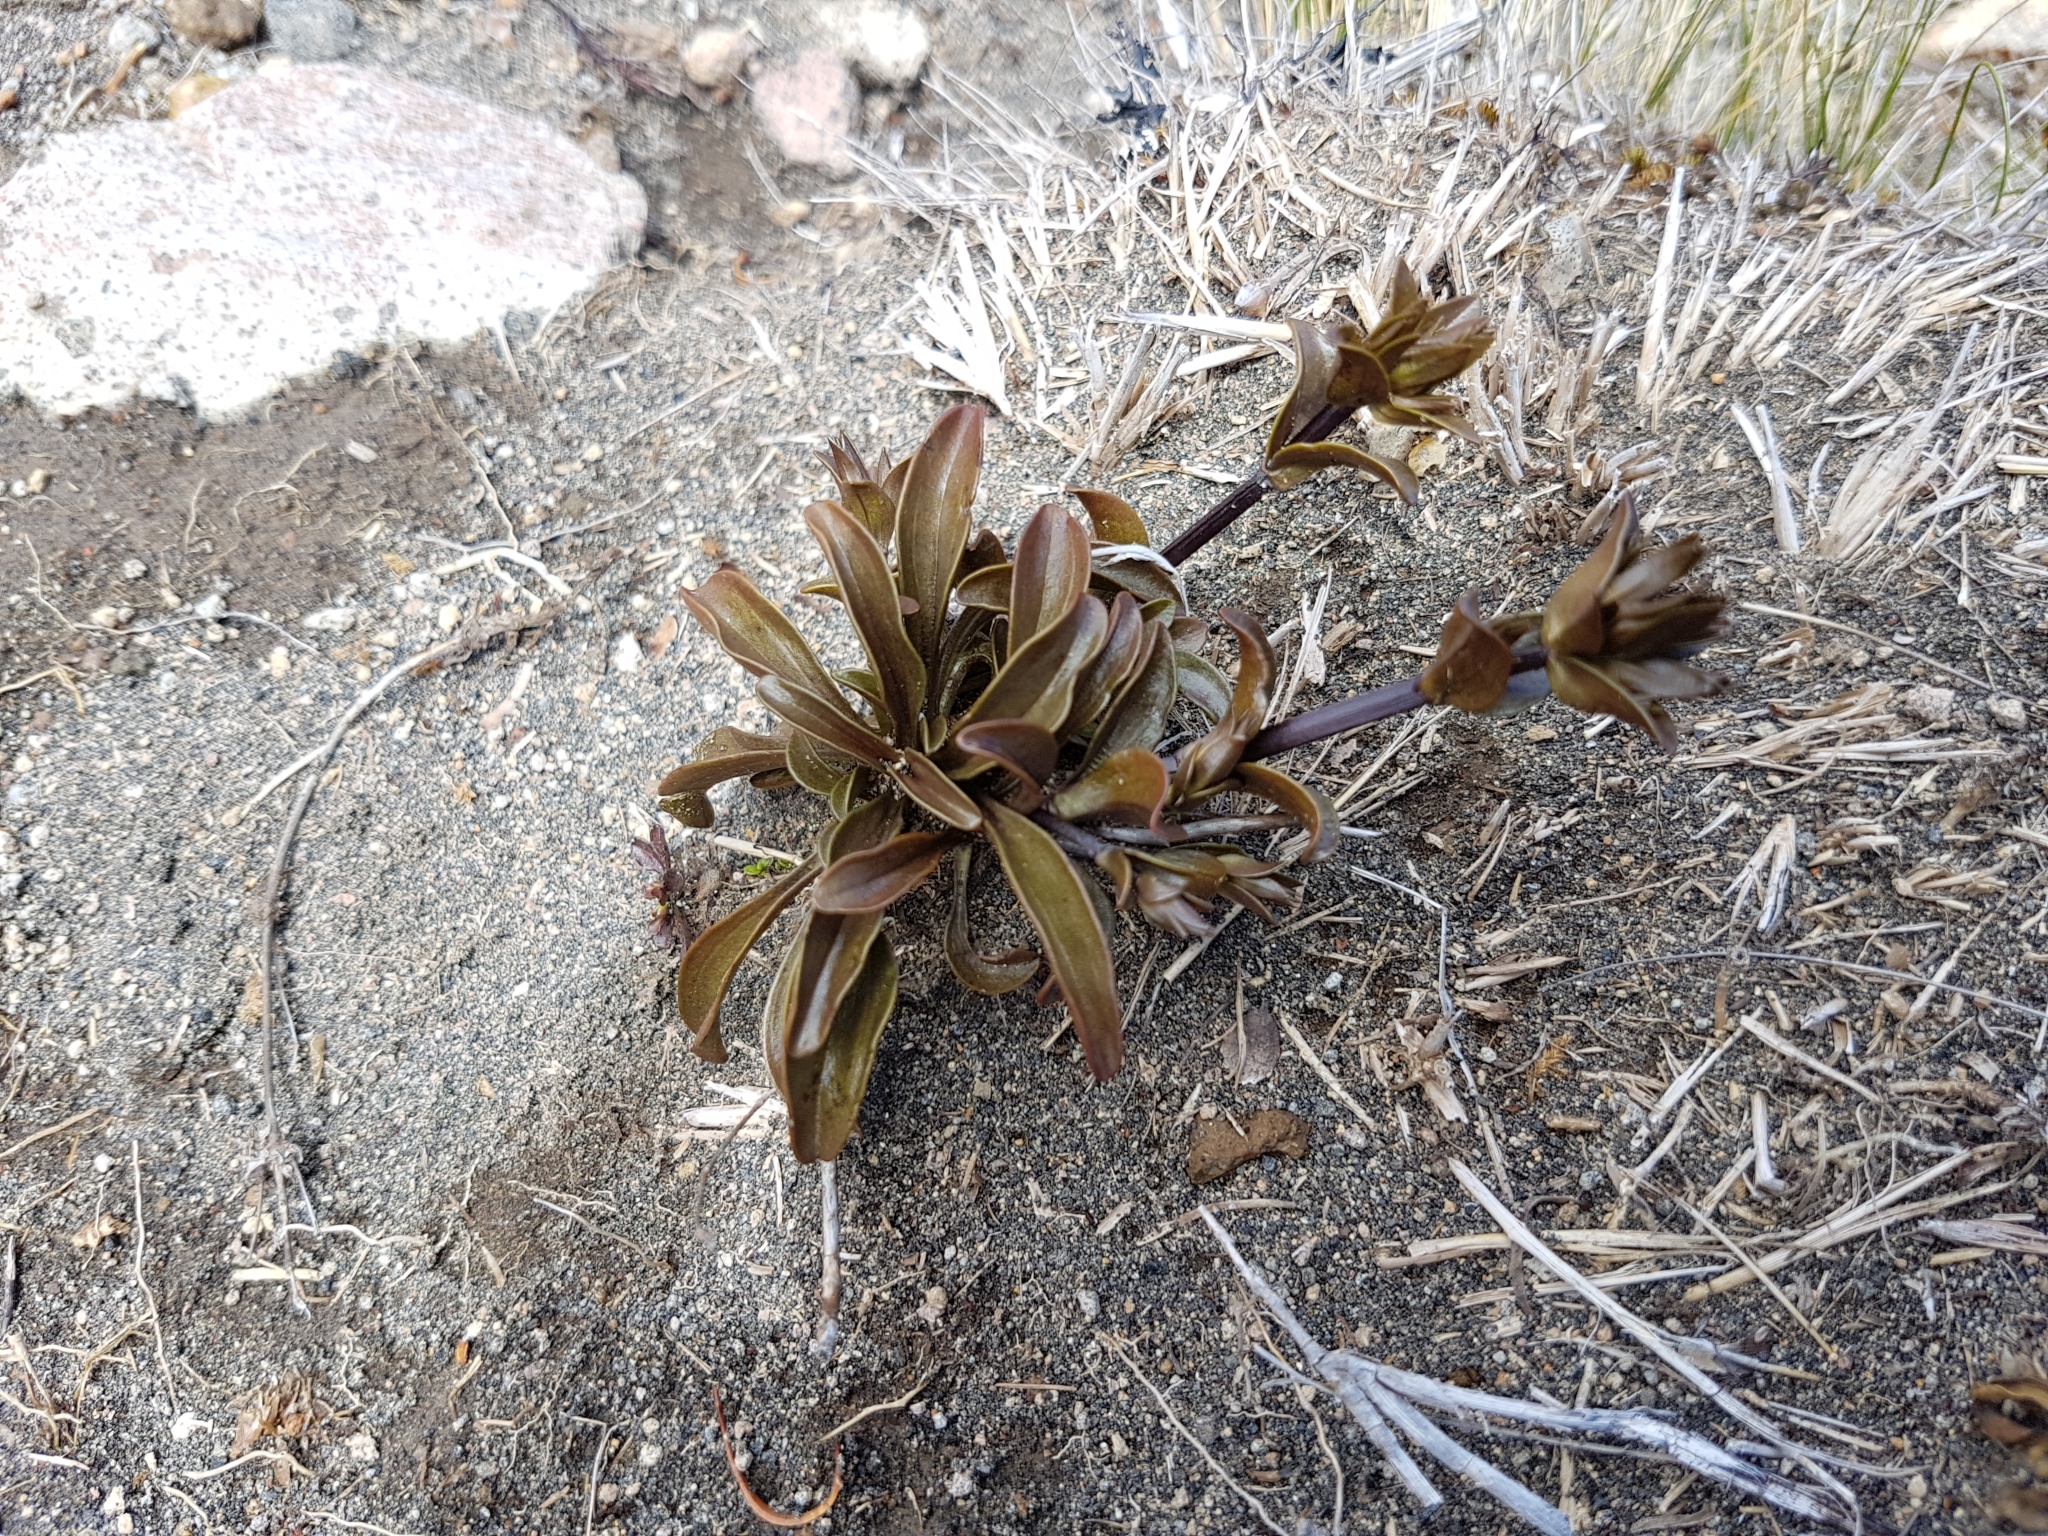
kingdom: Plantae
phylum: Tracheophyta
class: Magnoliopsida
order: Gentianales
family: Gentianaceae
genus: Gentianella
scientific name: Gentianella bellidifolia
